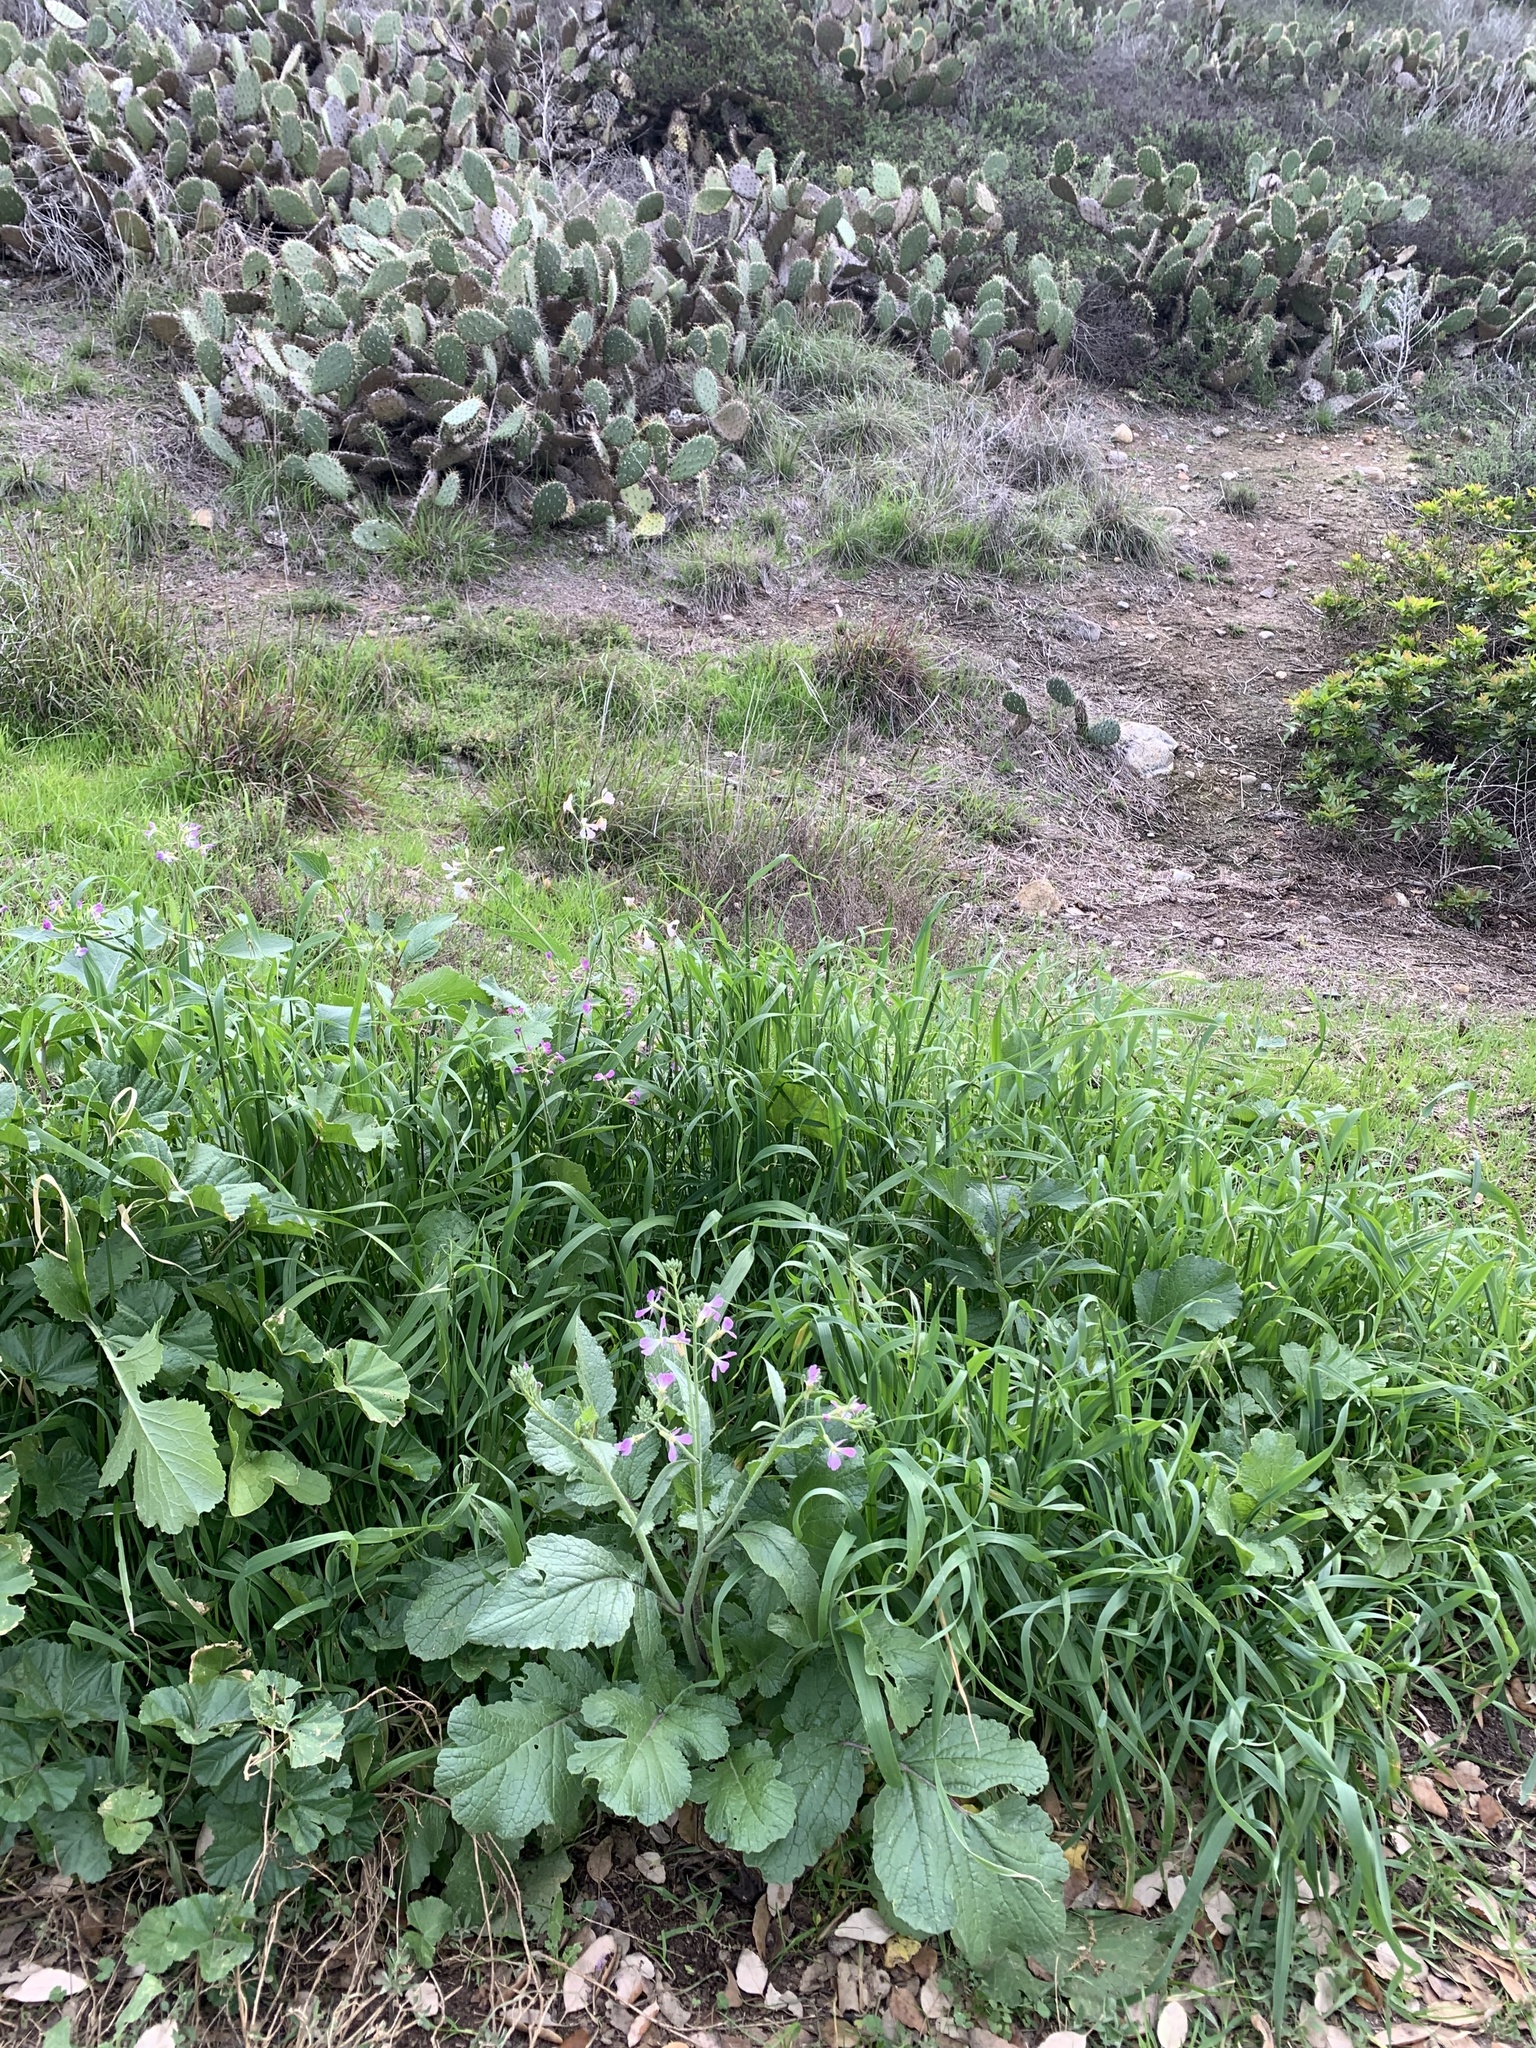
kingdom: Plantae
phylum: Tracheophyta
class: Magnoliopsida
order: Brassicales
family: Brassicaceae
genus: Raphanus
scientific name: Raphanus sativus
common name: Cultivated radish
